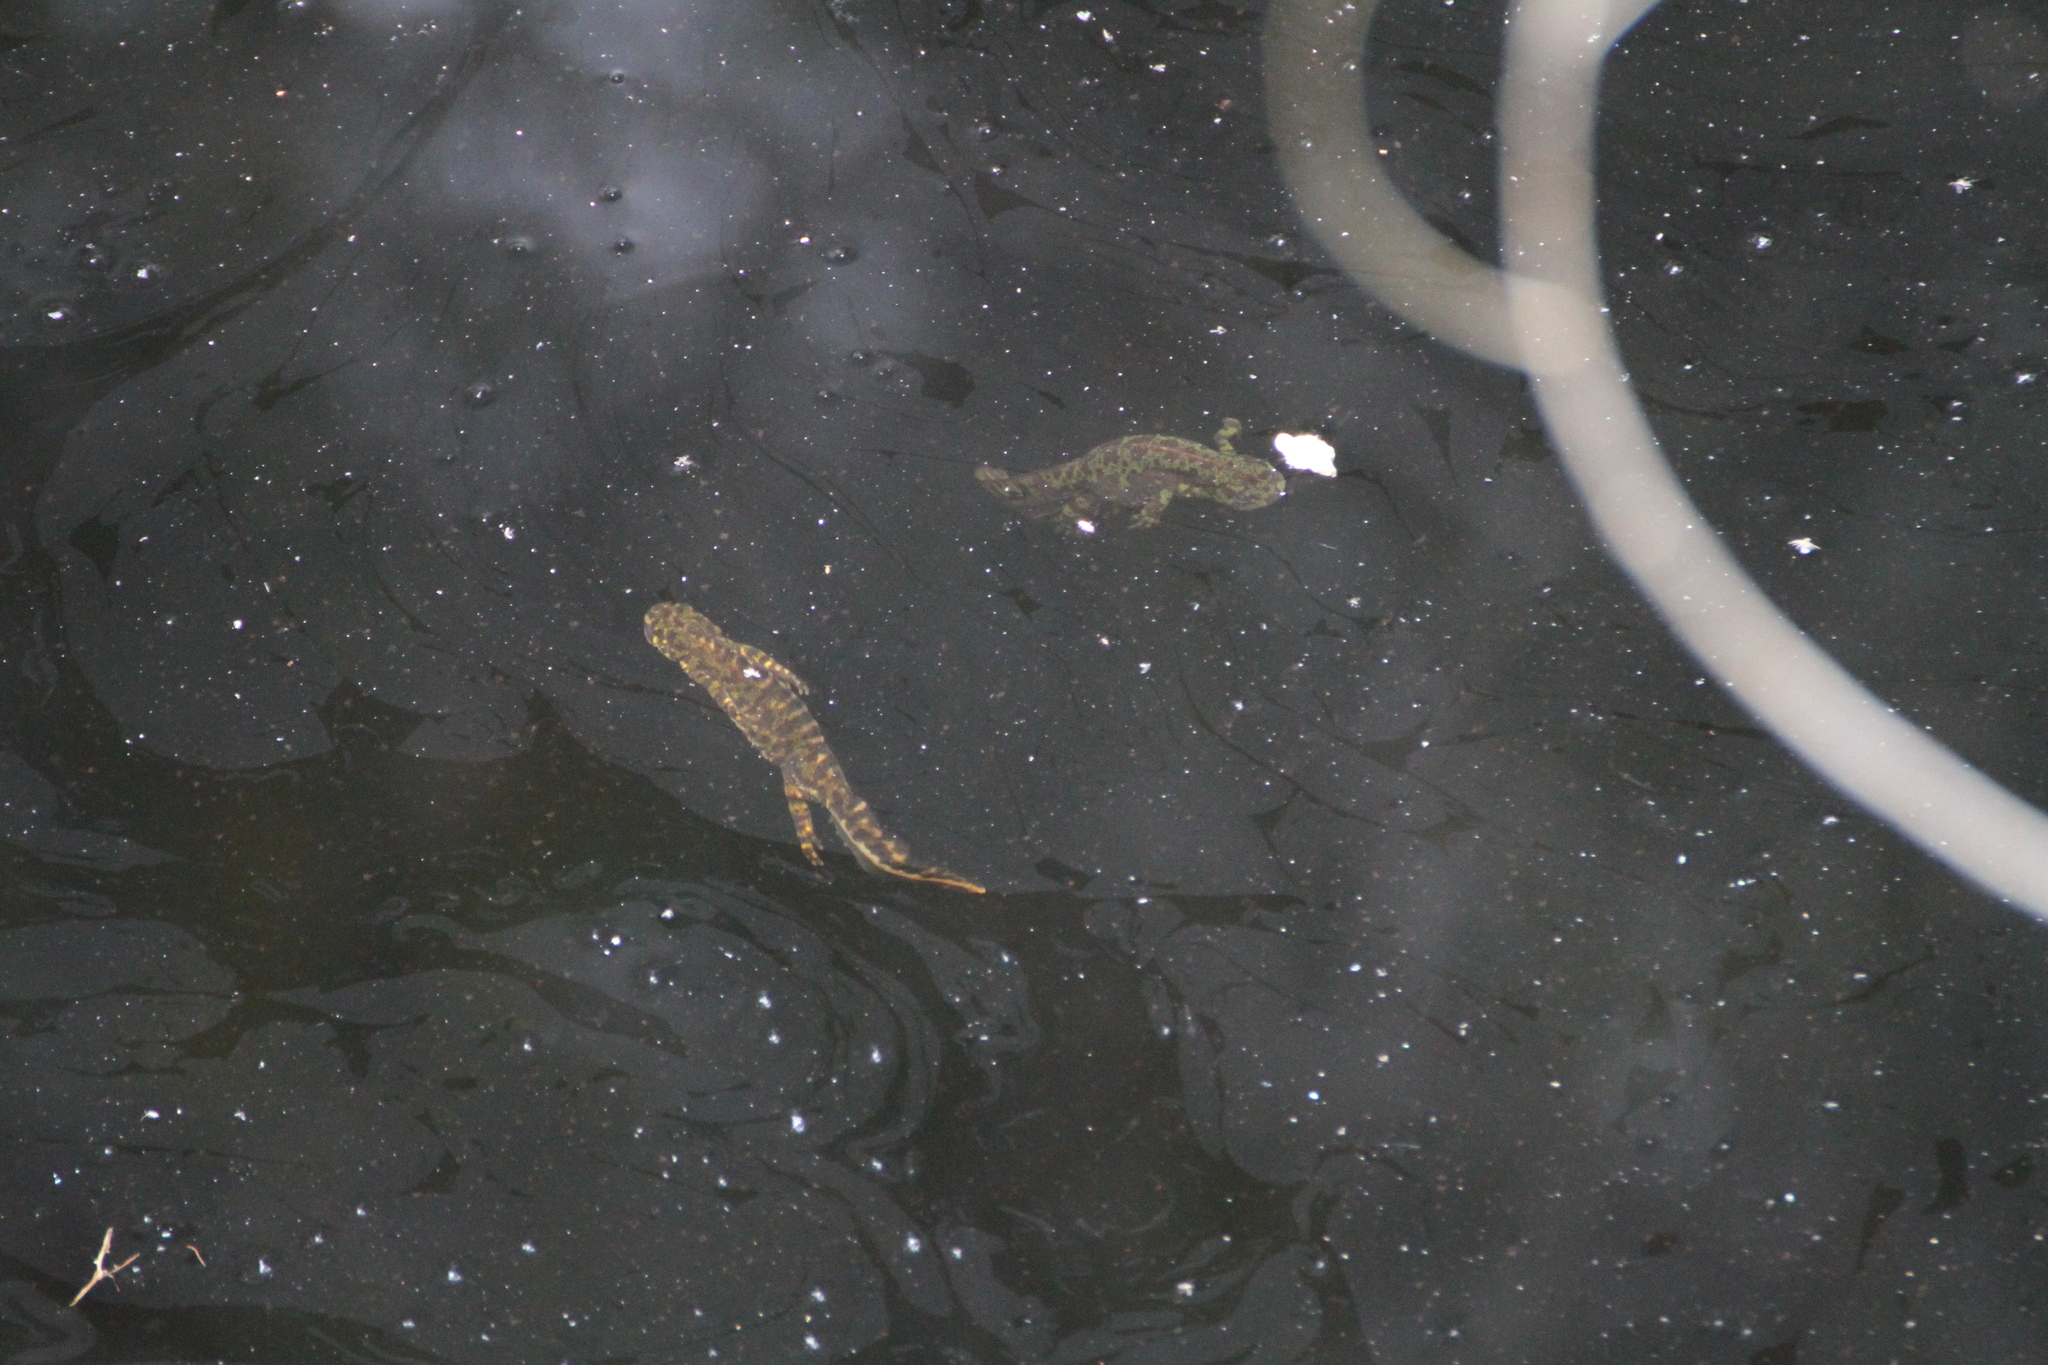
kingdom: Animalia
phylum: Chordata
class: Amphibia
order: Caudata
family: Salamandridae
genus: Triturus
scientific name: Triturus marmoratus
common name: Marbled newt
